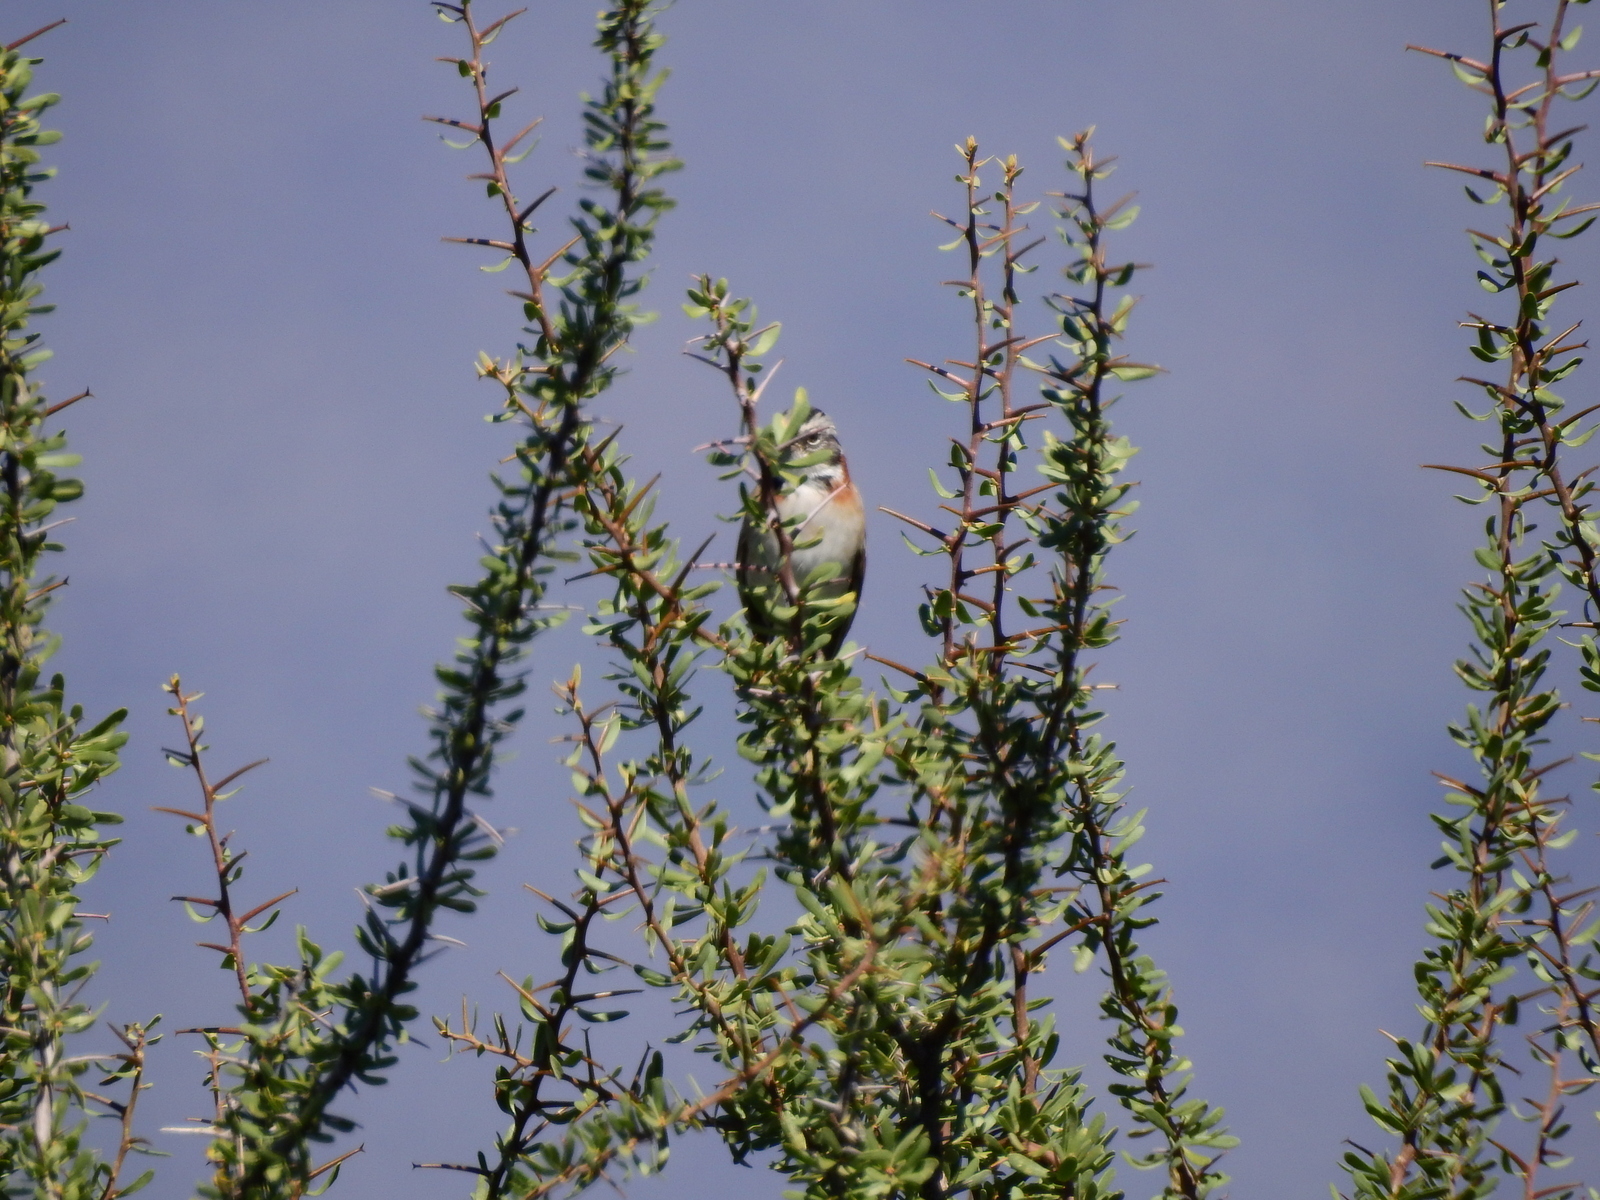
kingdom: Animalia
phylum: Chordata
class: Aves
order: Passeriformes
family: Passerellidae
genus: Zonotrichia
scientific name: Zonotrichia capensis
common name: Rufous-collared sparrow
